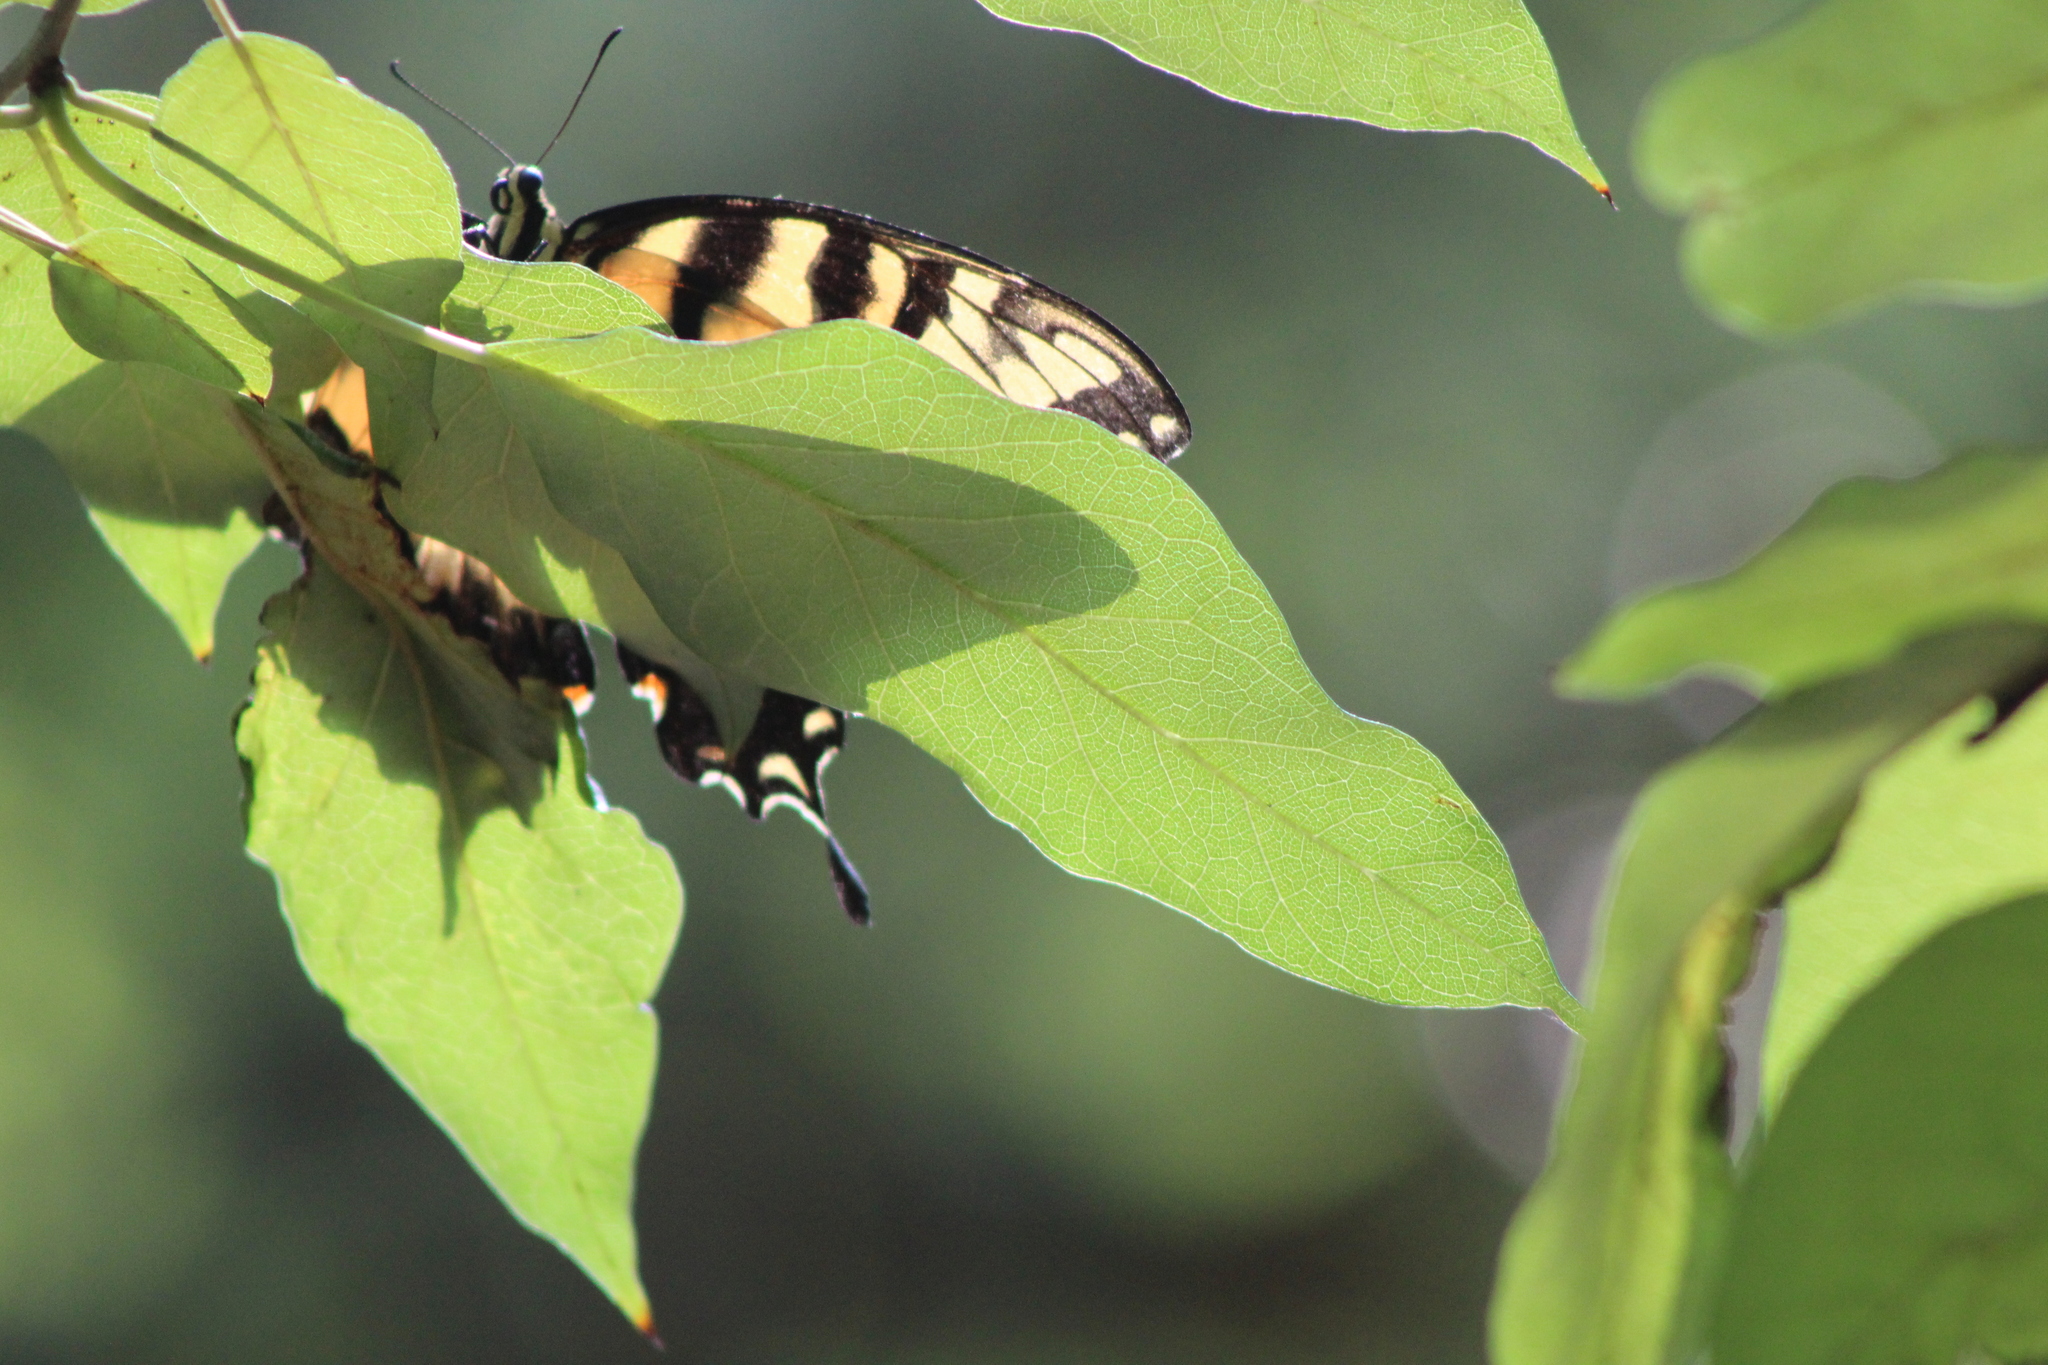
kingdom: Animalia
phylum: Arthropoda
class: Insecta
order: Lepidoptera
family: Papilionidae
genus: Papilio
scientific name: Papilio glaucus
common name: Tiger swallowtail
